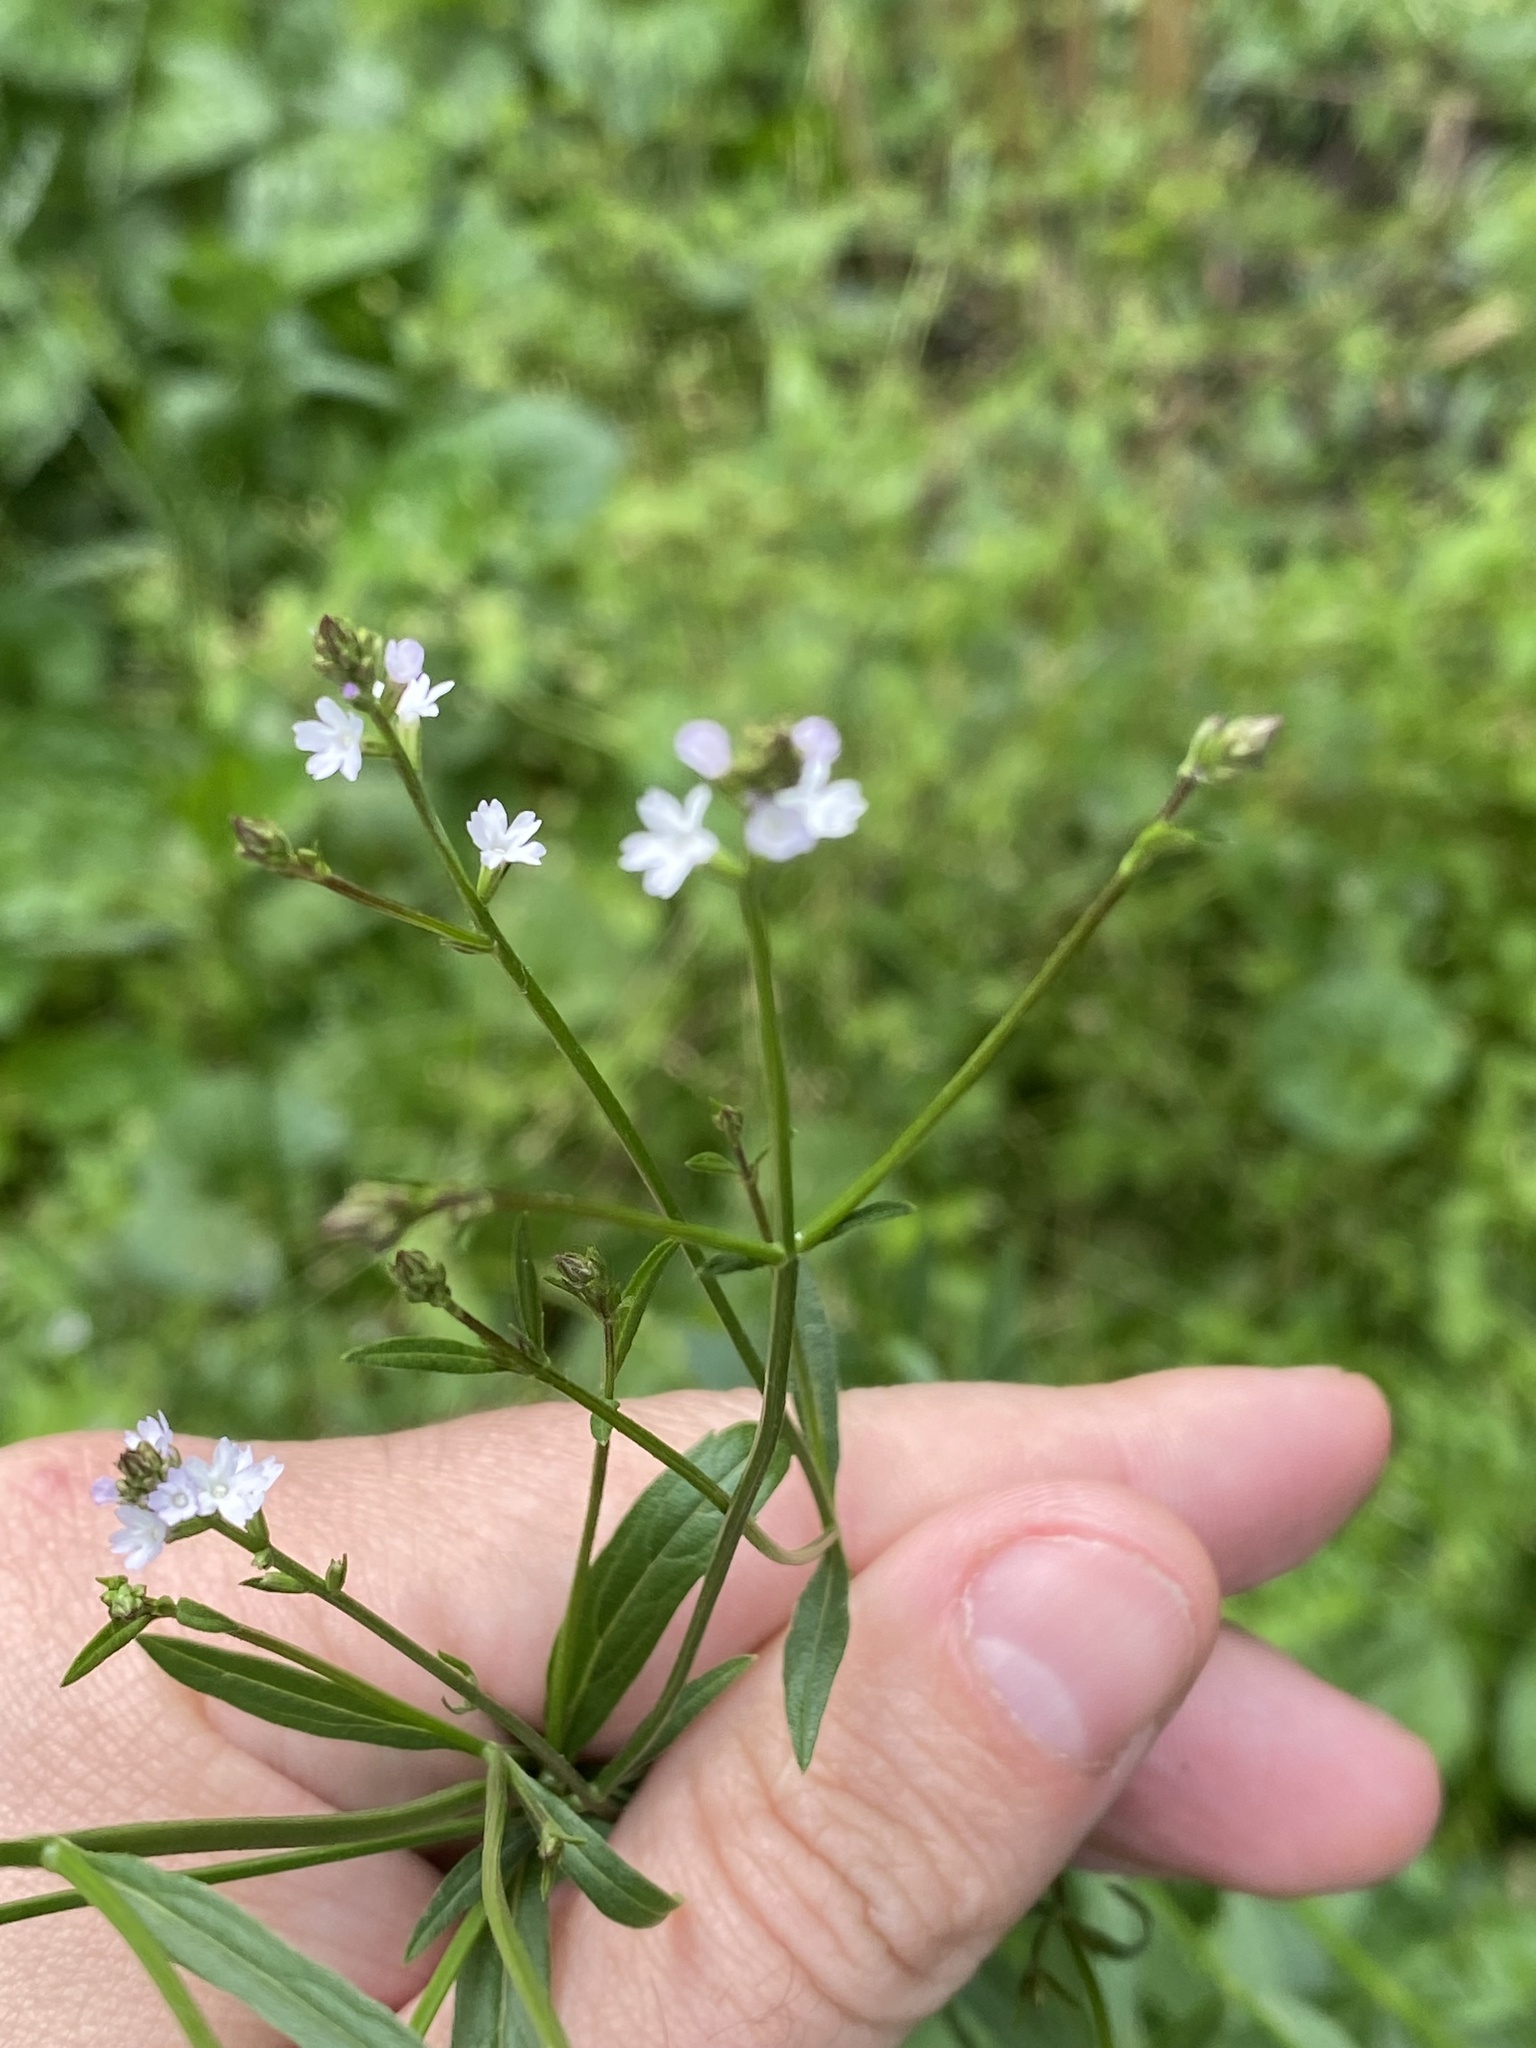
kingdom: Plantae
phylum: Tracheophyta
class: Magnoliopsida
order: Lamiales
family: Verbenaceae
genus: Verbena
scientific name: Verbena montevidensis
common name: Uruguayan vervain
